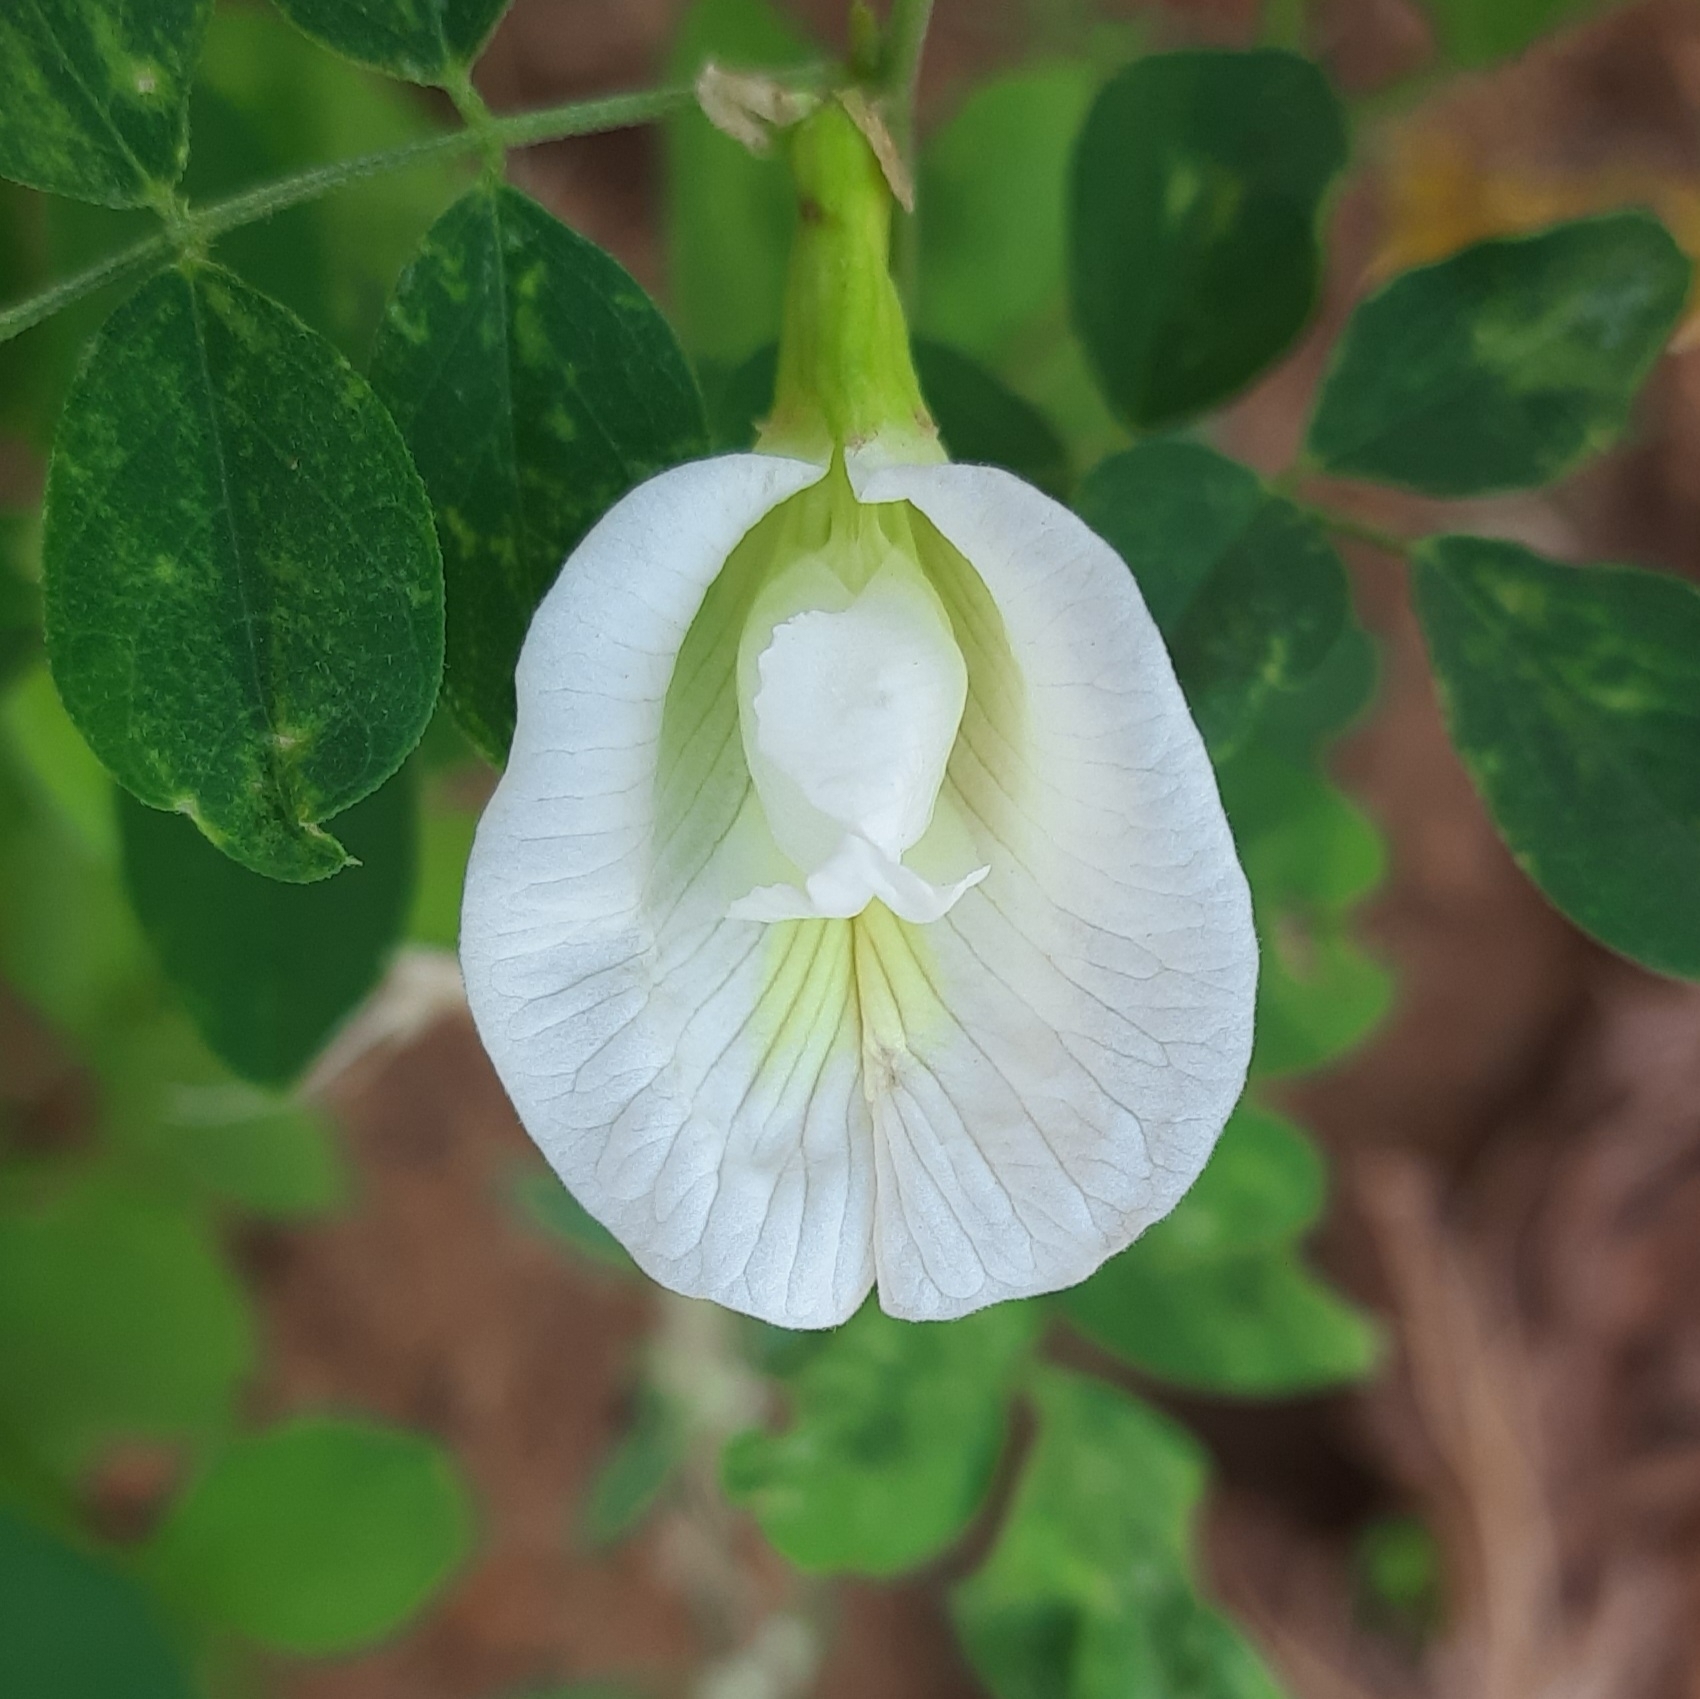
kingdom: Plantae
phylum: Tracheophyta
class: Magnoliopsida
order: Fabales
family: Fabaceae
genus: Clitoria
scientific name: Clitoria ternatea
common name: Asian pigeonwings
